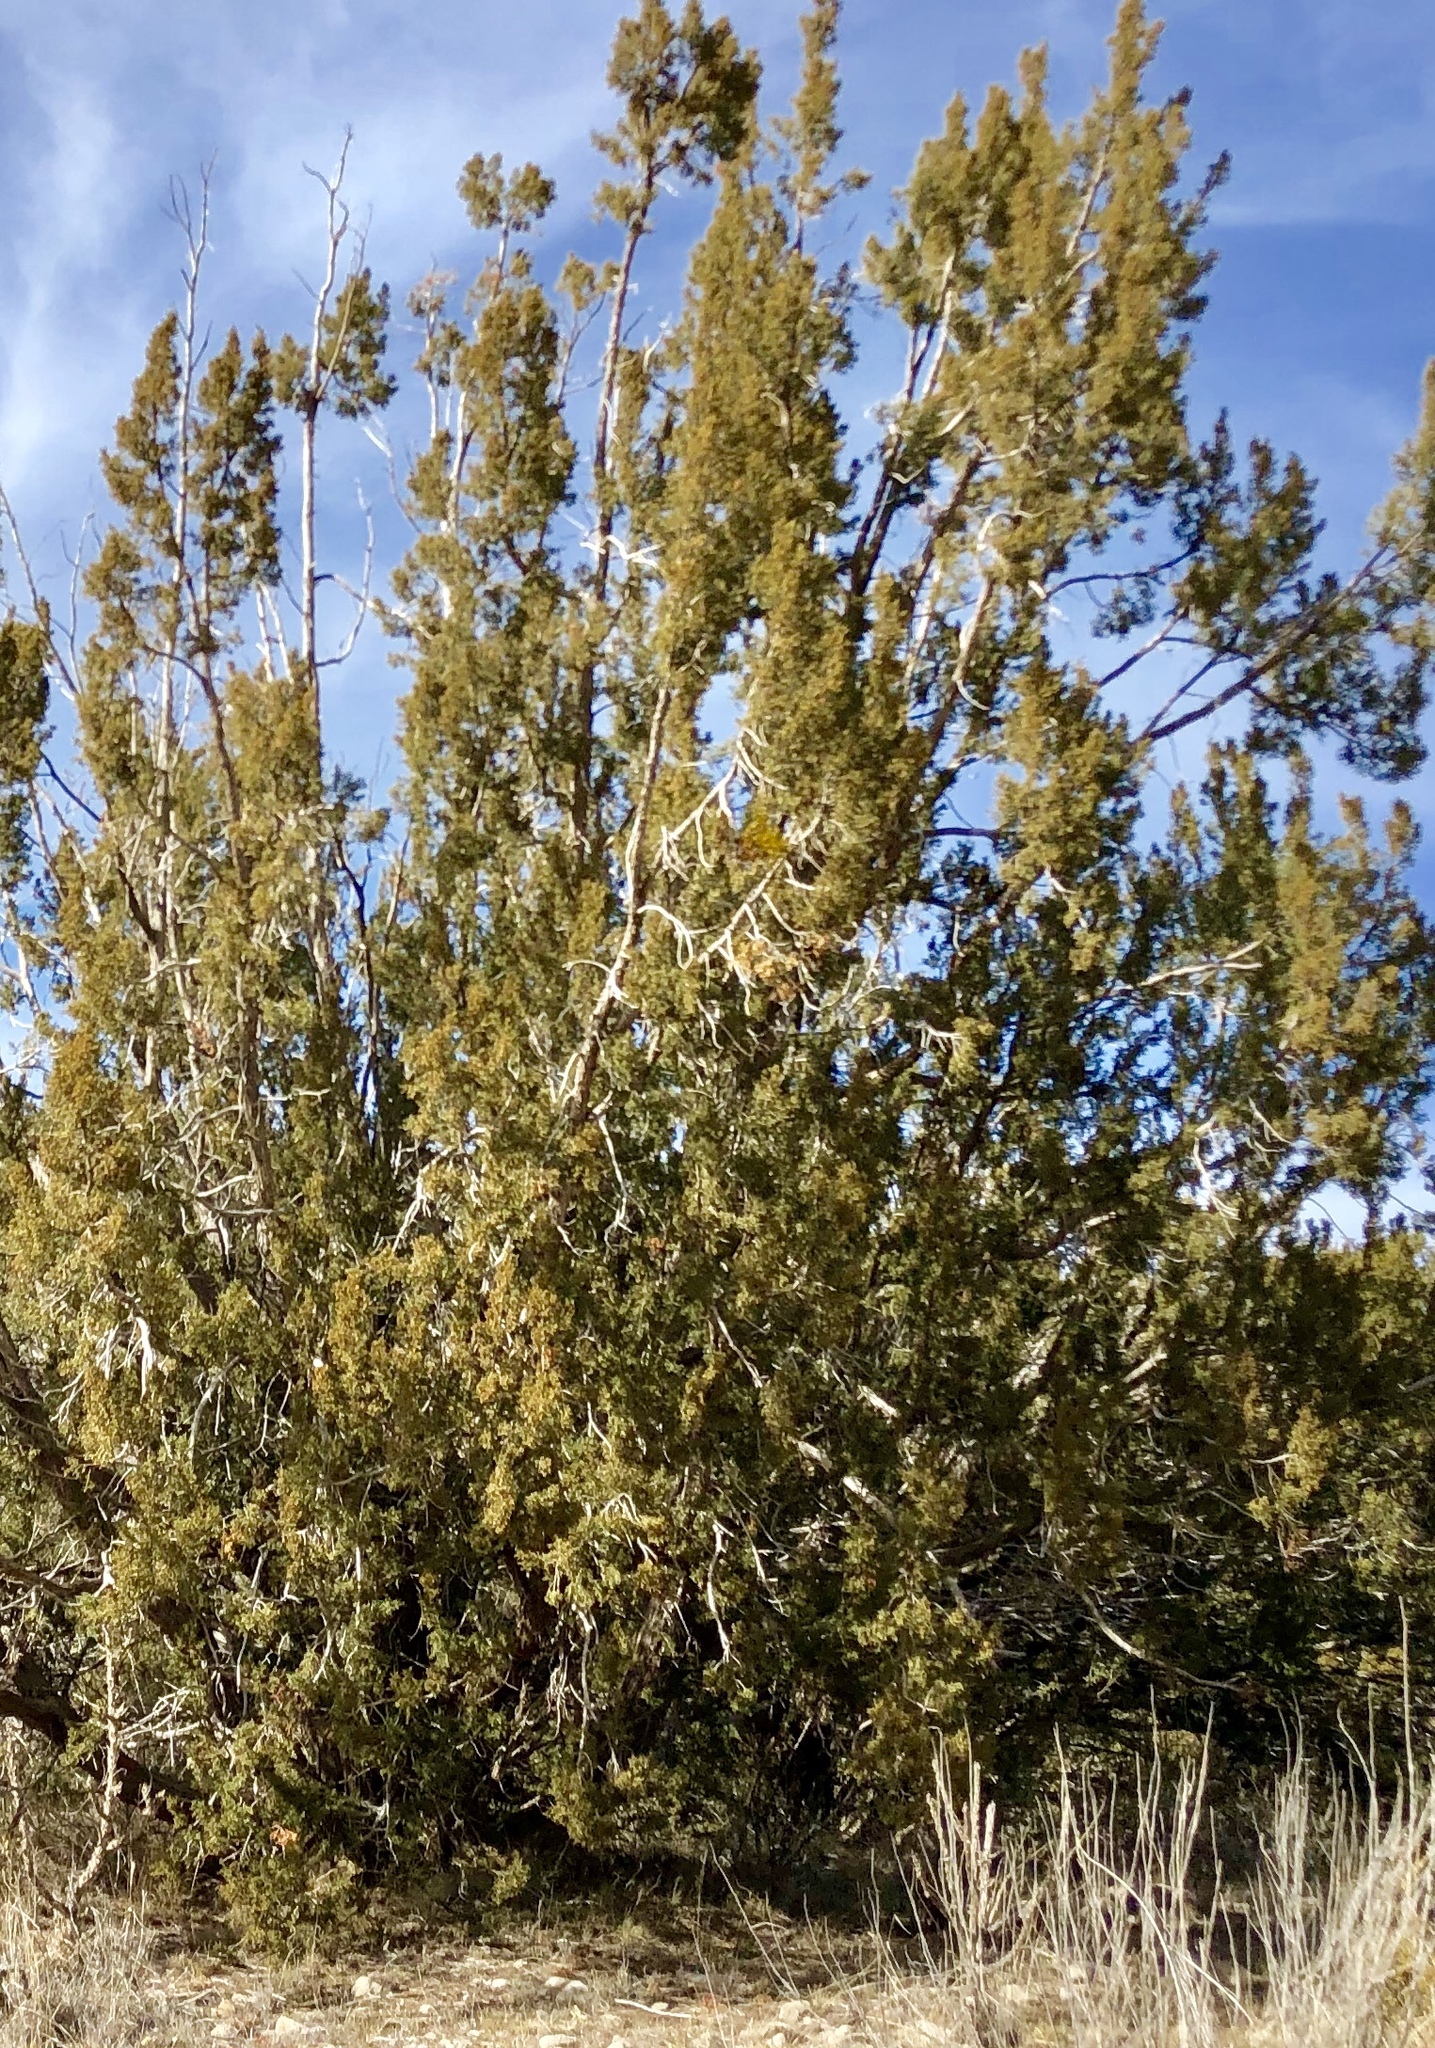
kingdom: Plantae
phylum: Tracheophyta
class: Pinopsida
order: Pinales
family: Cupressaceae
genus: Juniperus
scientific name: Juniperus monosperma
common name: One-seed juniper
